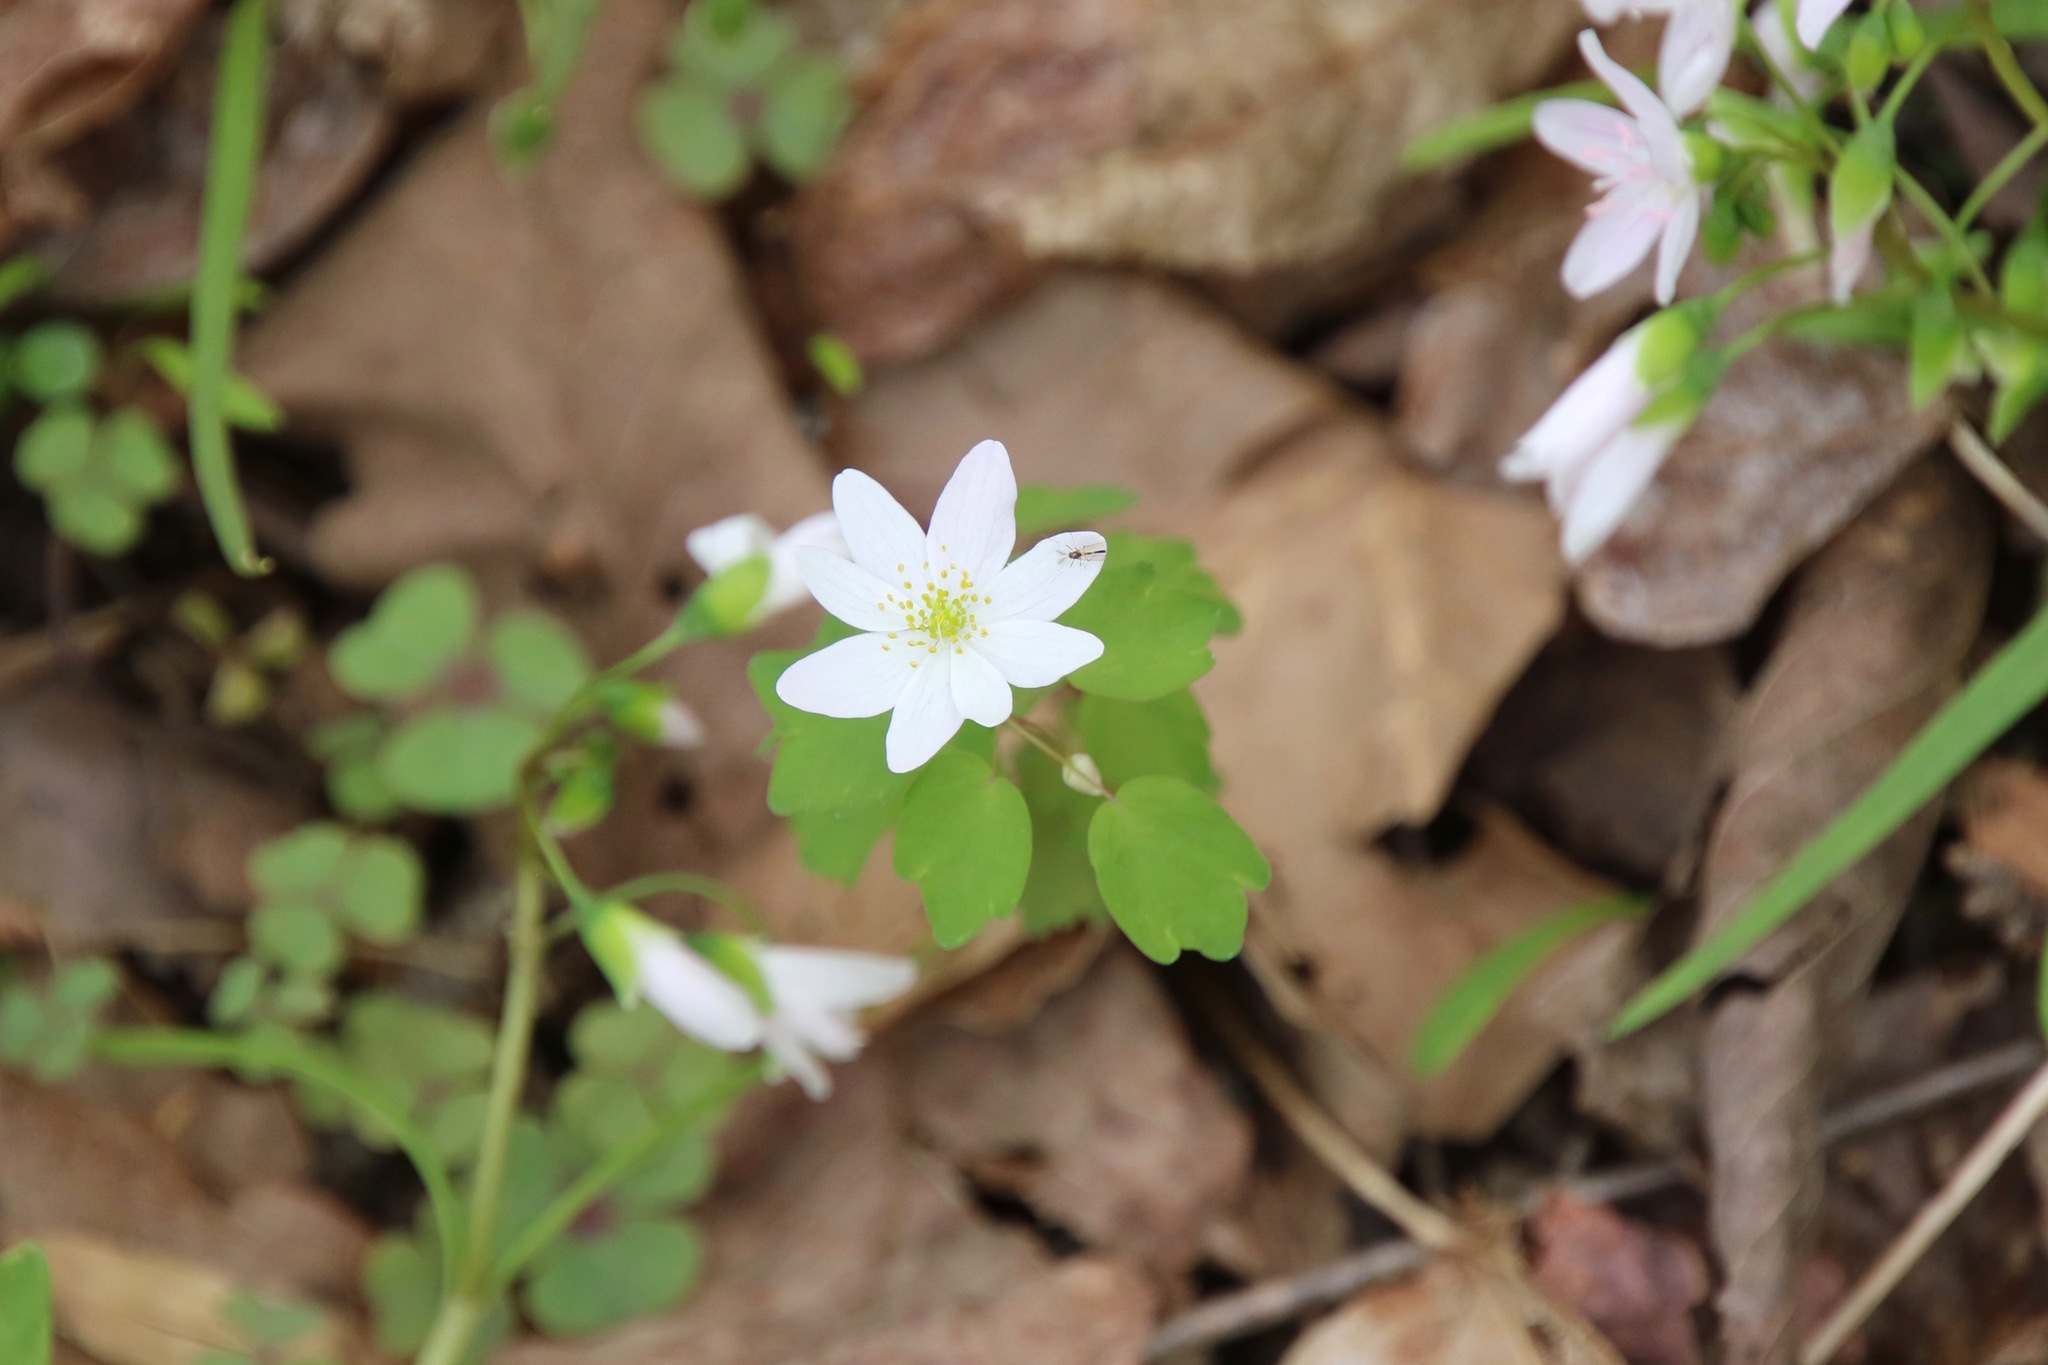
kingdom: Plantae
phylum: Tracheophyta
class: Magnoliopsida
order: Ranunculales
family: Ranunculaceae
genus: Thalictrum
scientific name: Thalictrum thalictroides
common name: Rue-anemone
